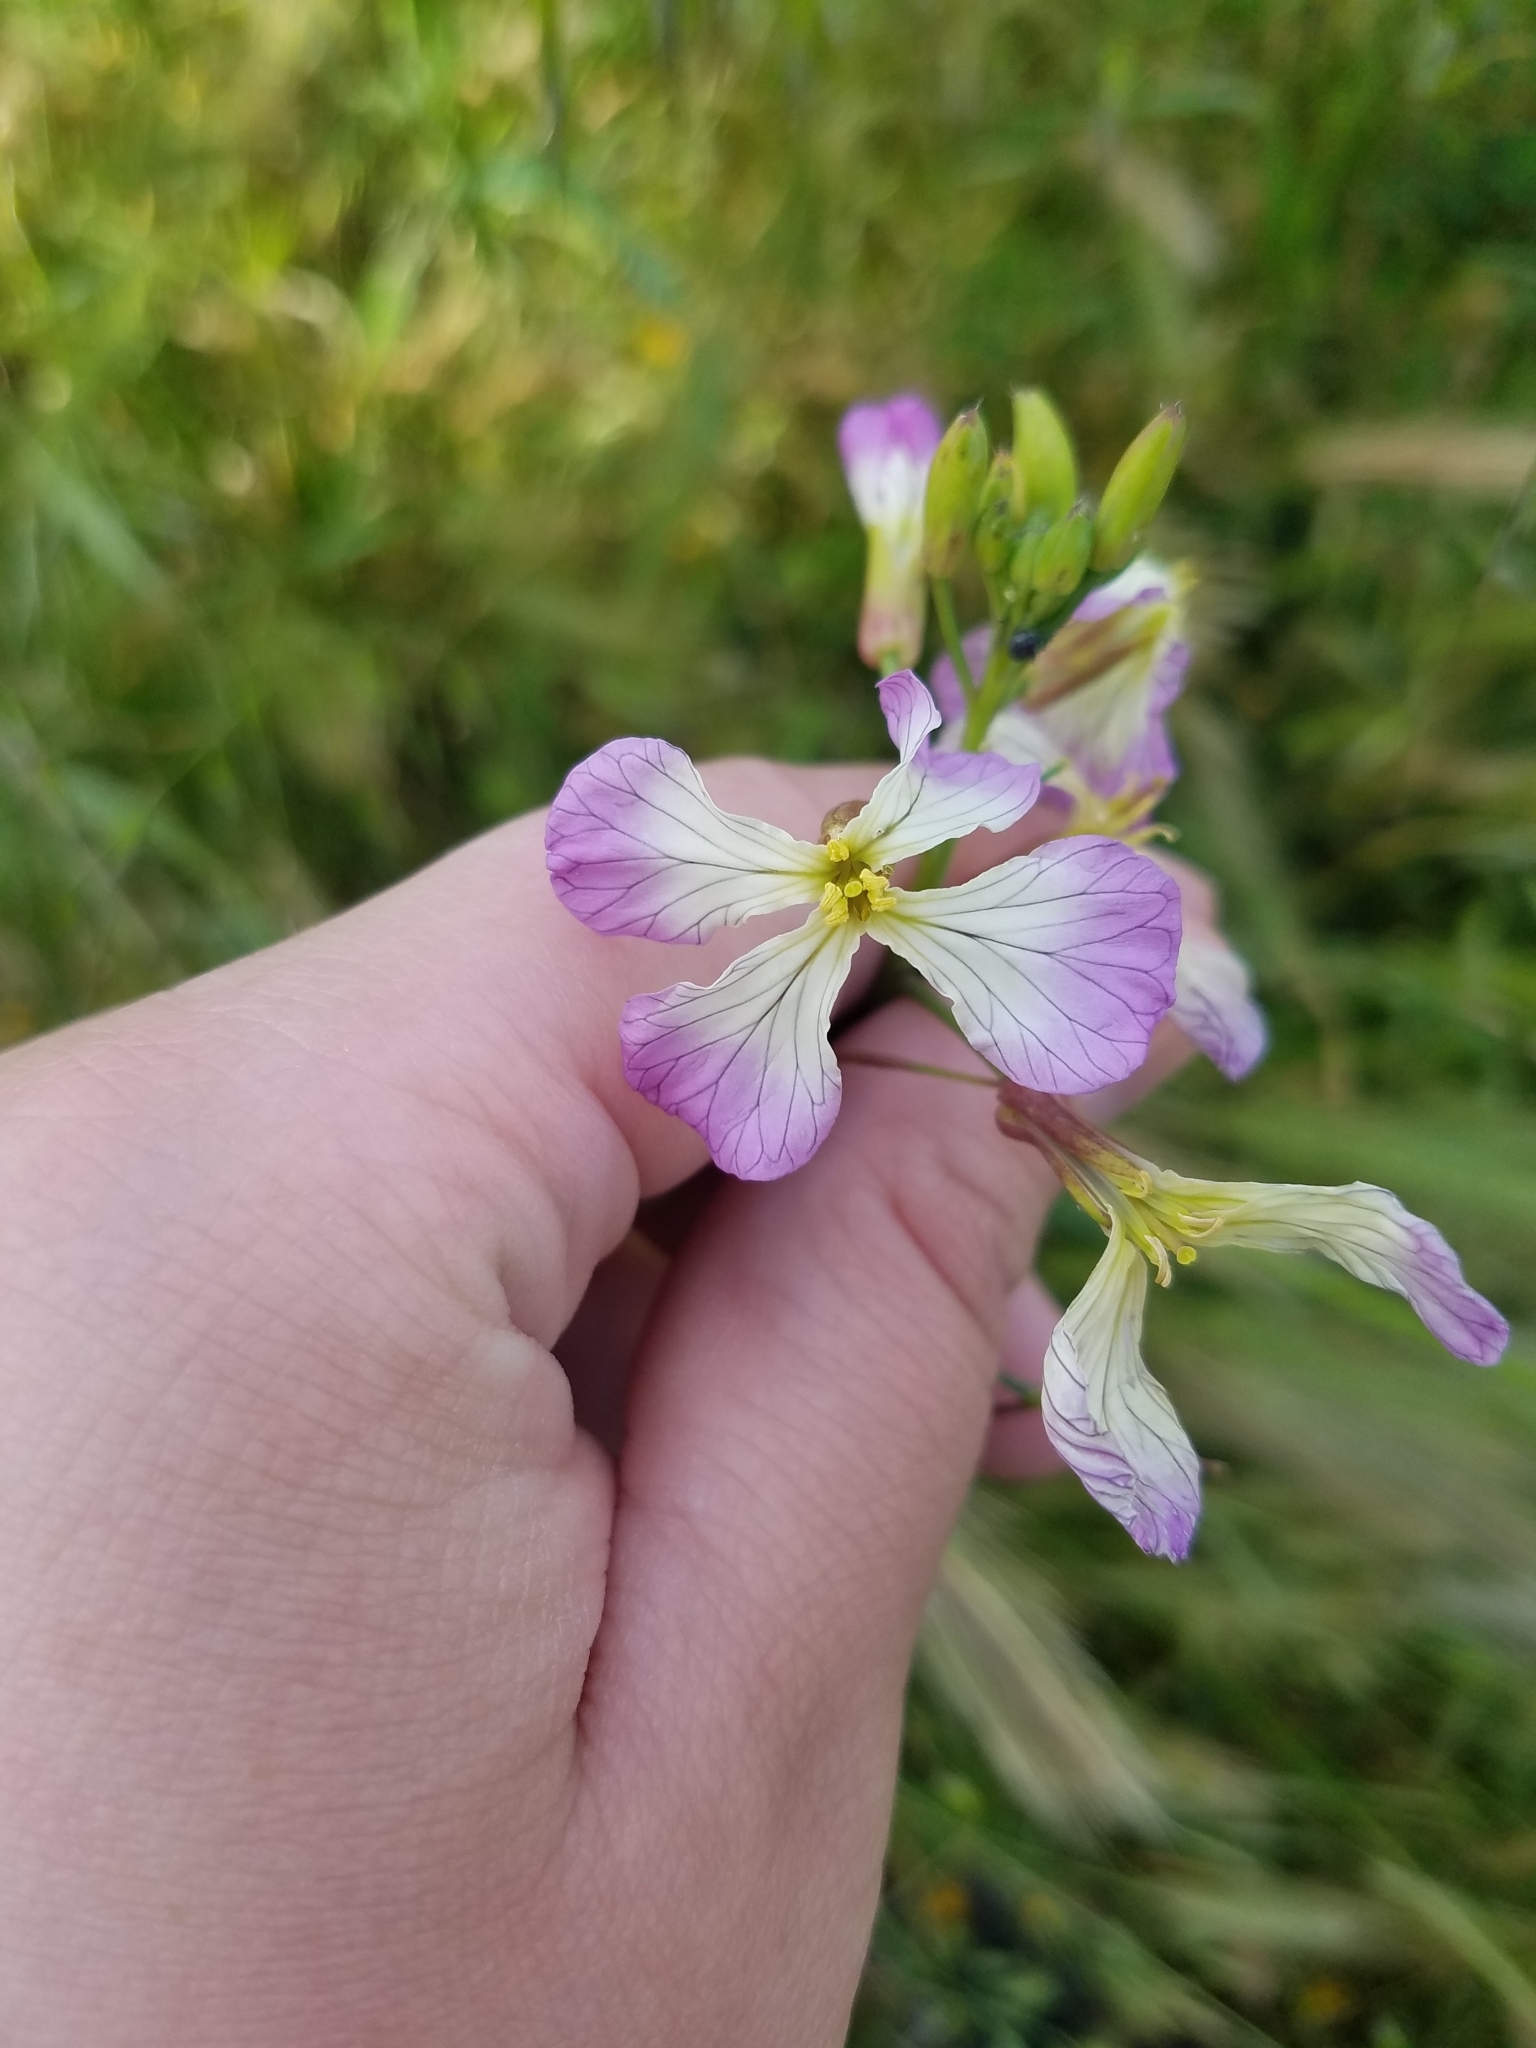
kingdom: Plantae
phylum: Tracheophyta
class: Magnoliopsida
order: Brassicales
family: Brassicaceae
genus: Raphanus
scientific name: Raphanus sativus
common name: Cultivated radish
